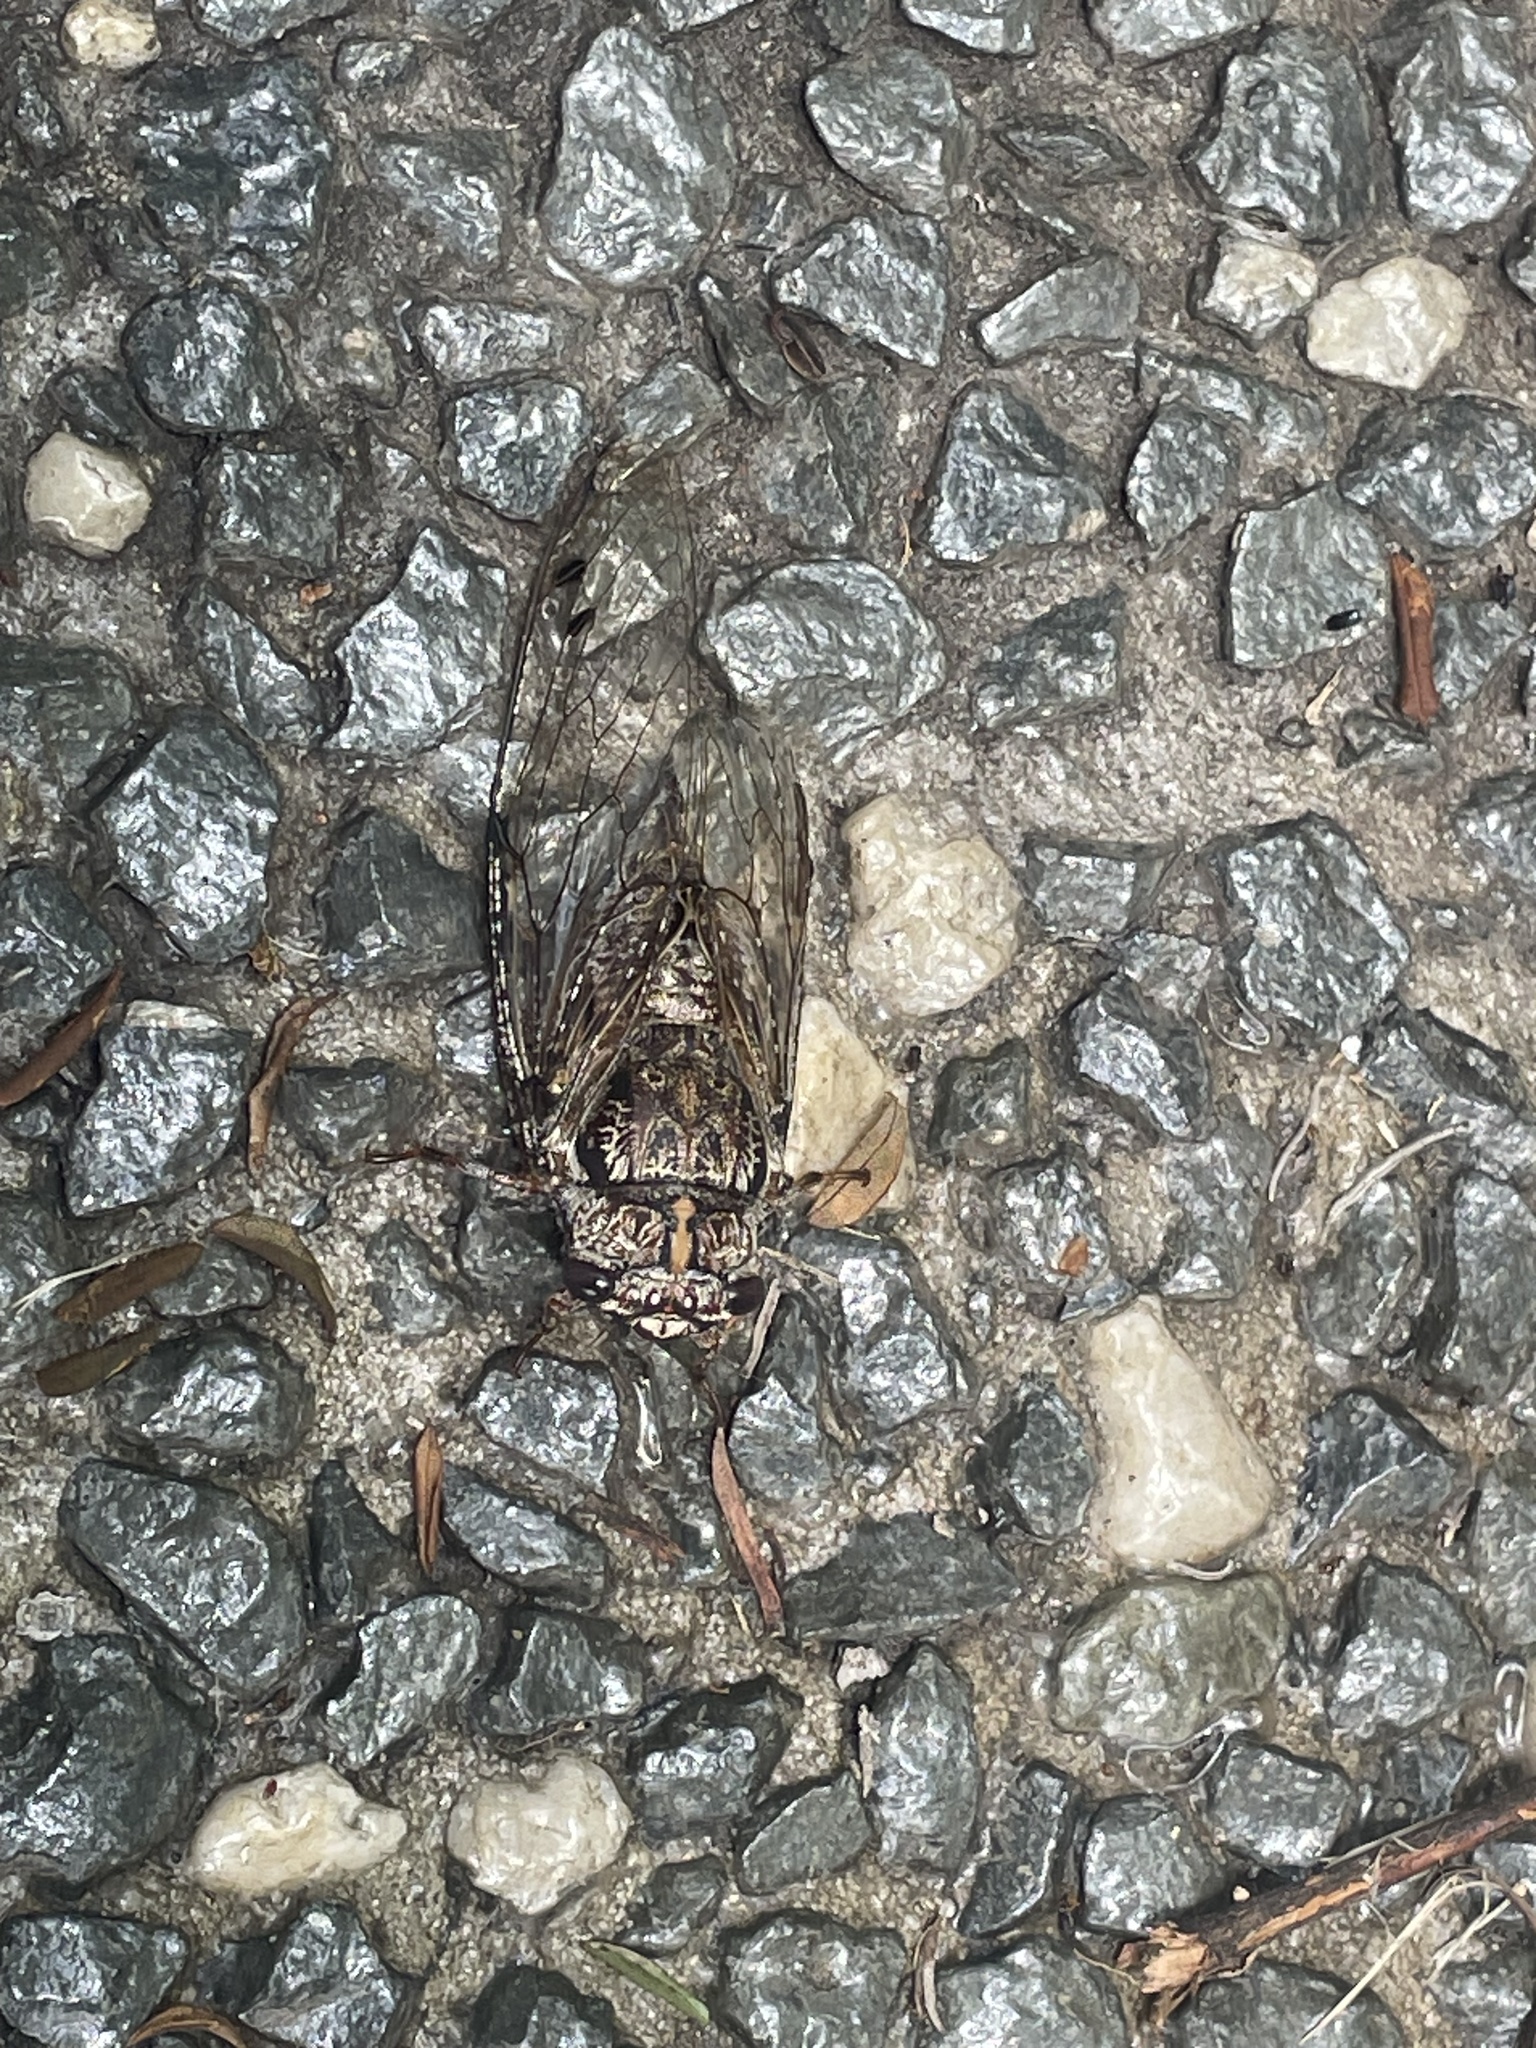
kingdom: Animalia
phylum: Arthropoda
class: Insecta
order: Hemiptera
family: Cicadidae
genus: Aleeta
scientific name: Aleeta curvicosta
